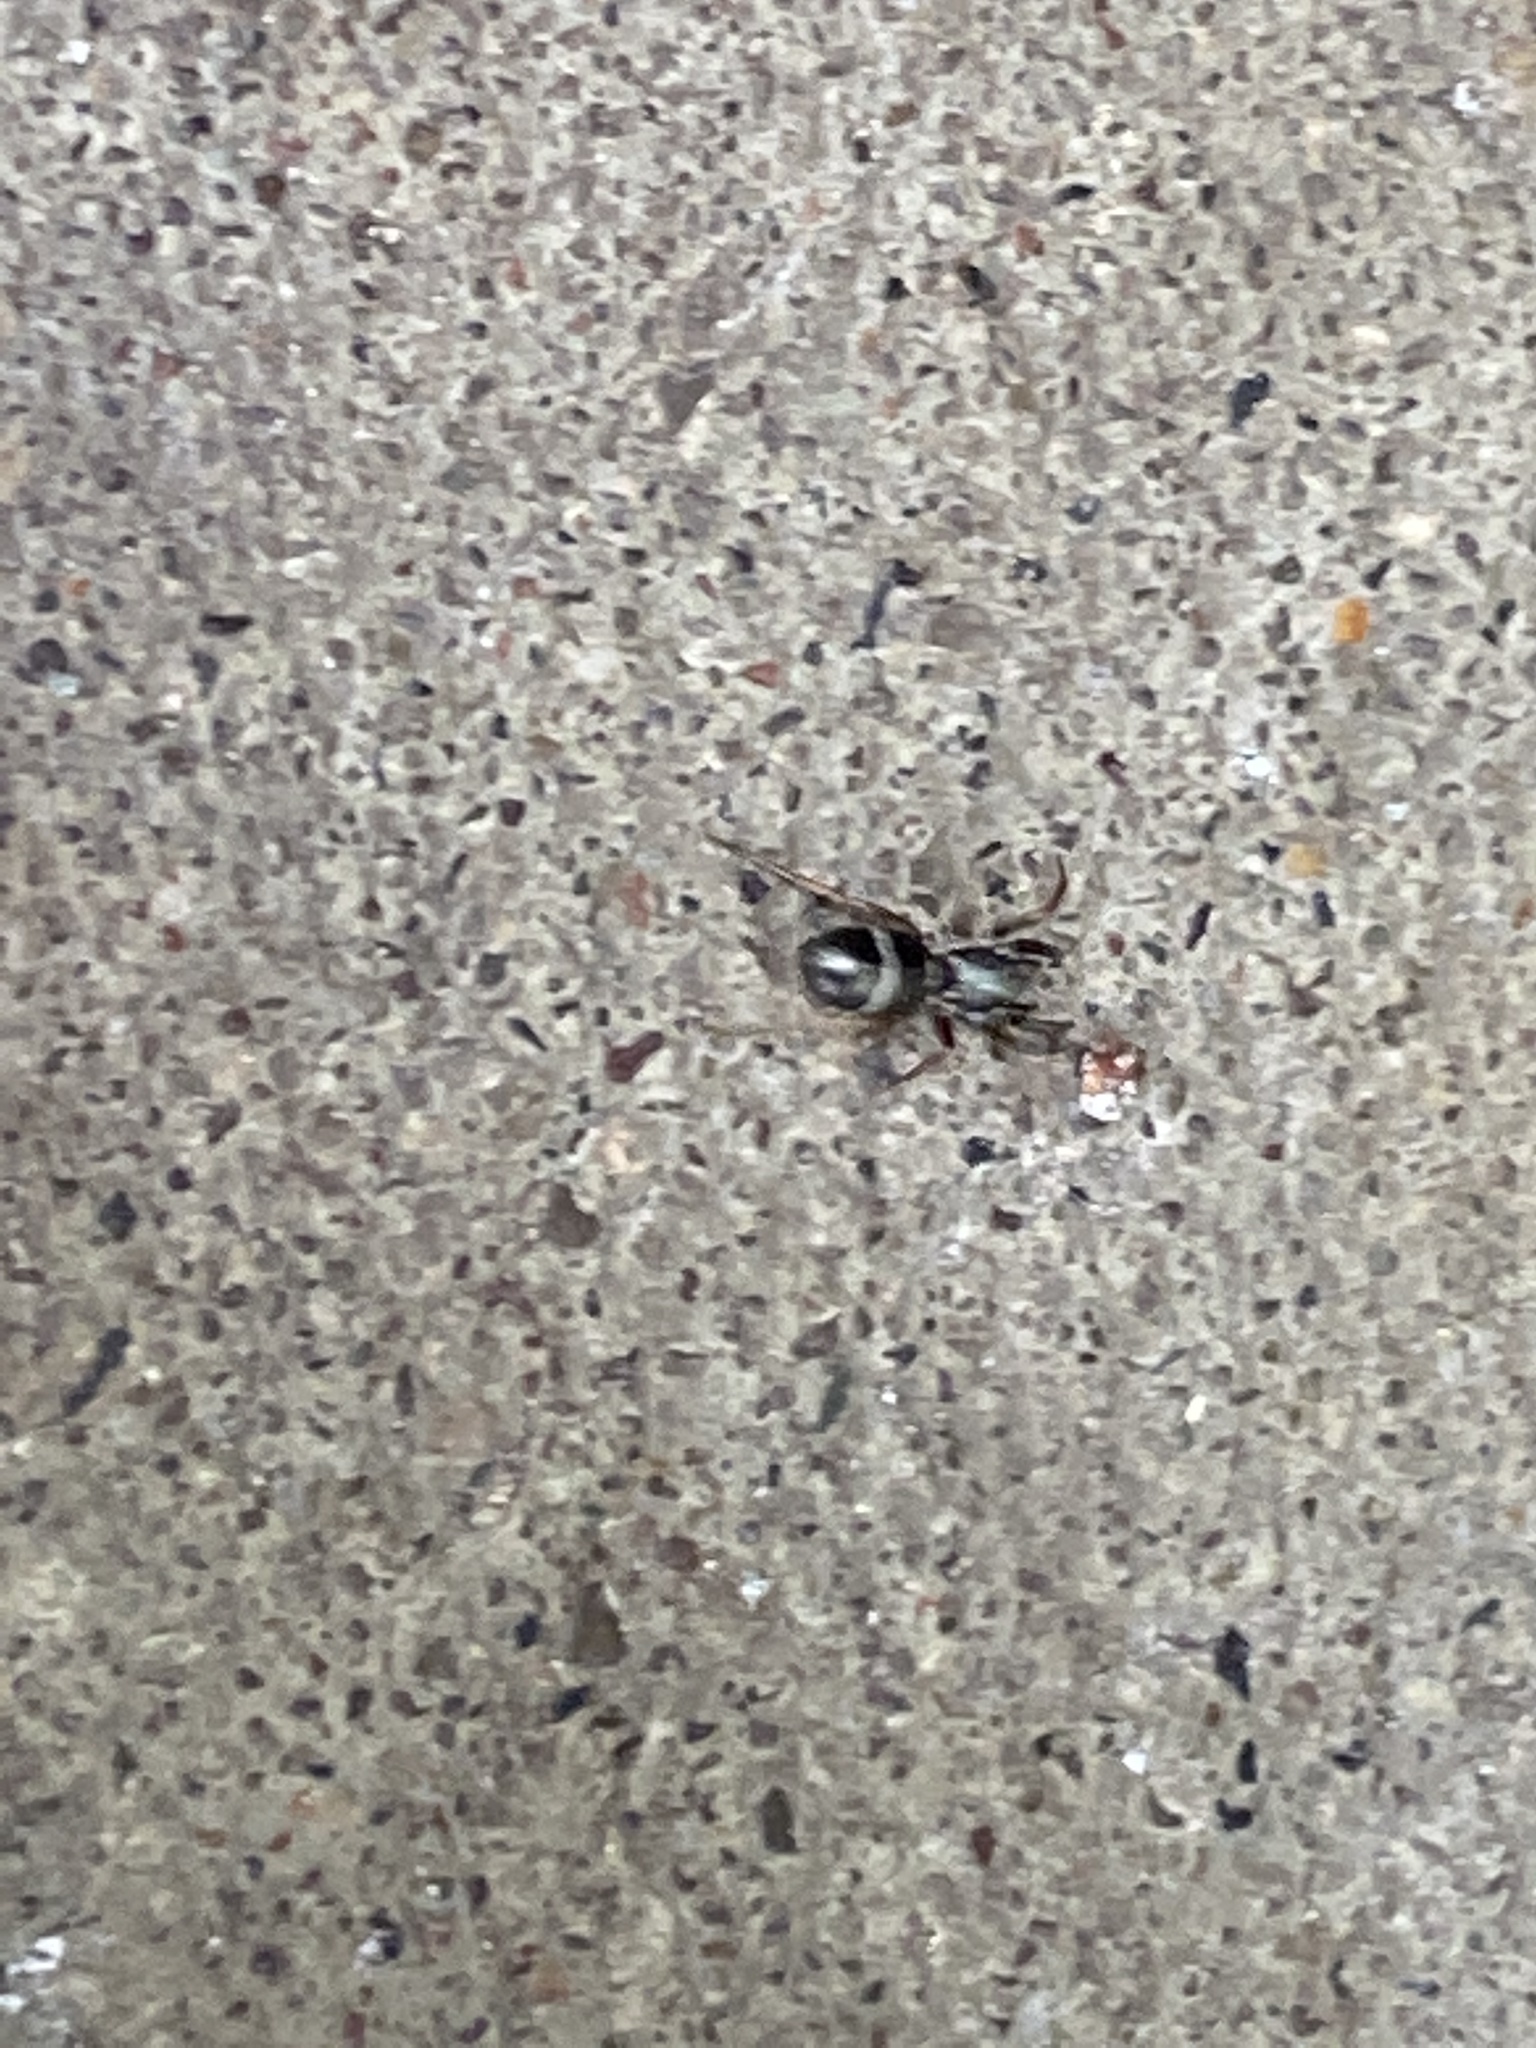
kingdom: Animalia
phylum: Arthropoda
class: Arachnida
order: Araneae
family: Gnaphosidae
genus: Micaria
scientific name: Micaria pulicaria
